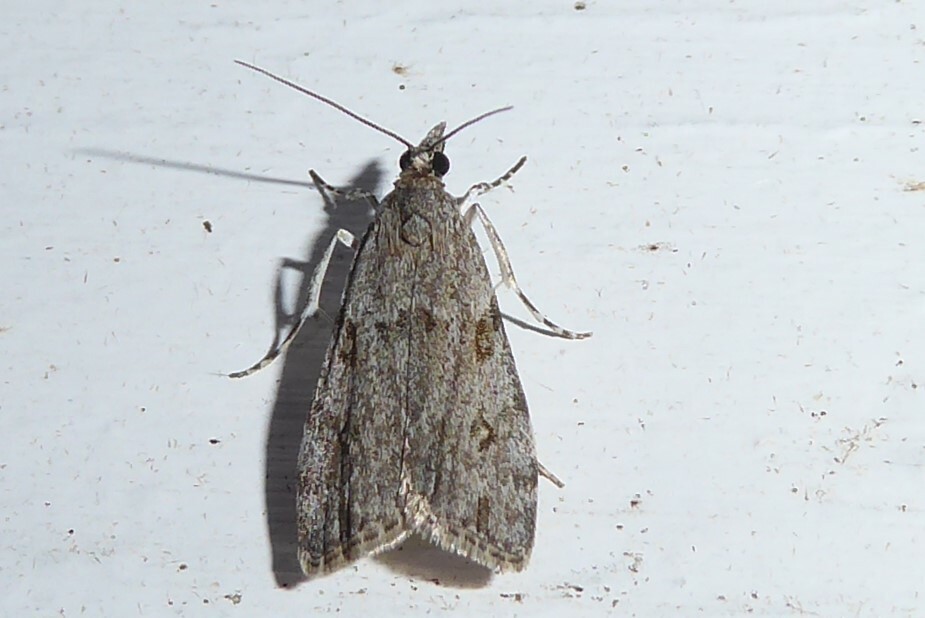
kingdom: Animalia
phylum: Arthropoda
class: Insecta
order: Lepidoptera
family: Crambidae
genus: Eudonia
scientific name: Eudonia cymatias
